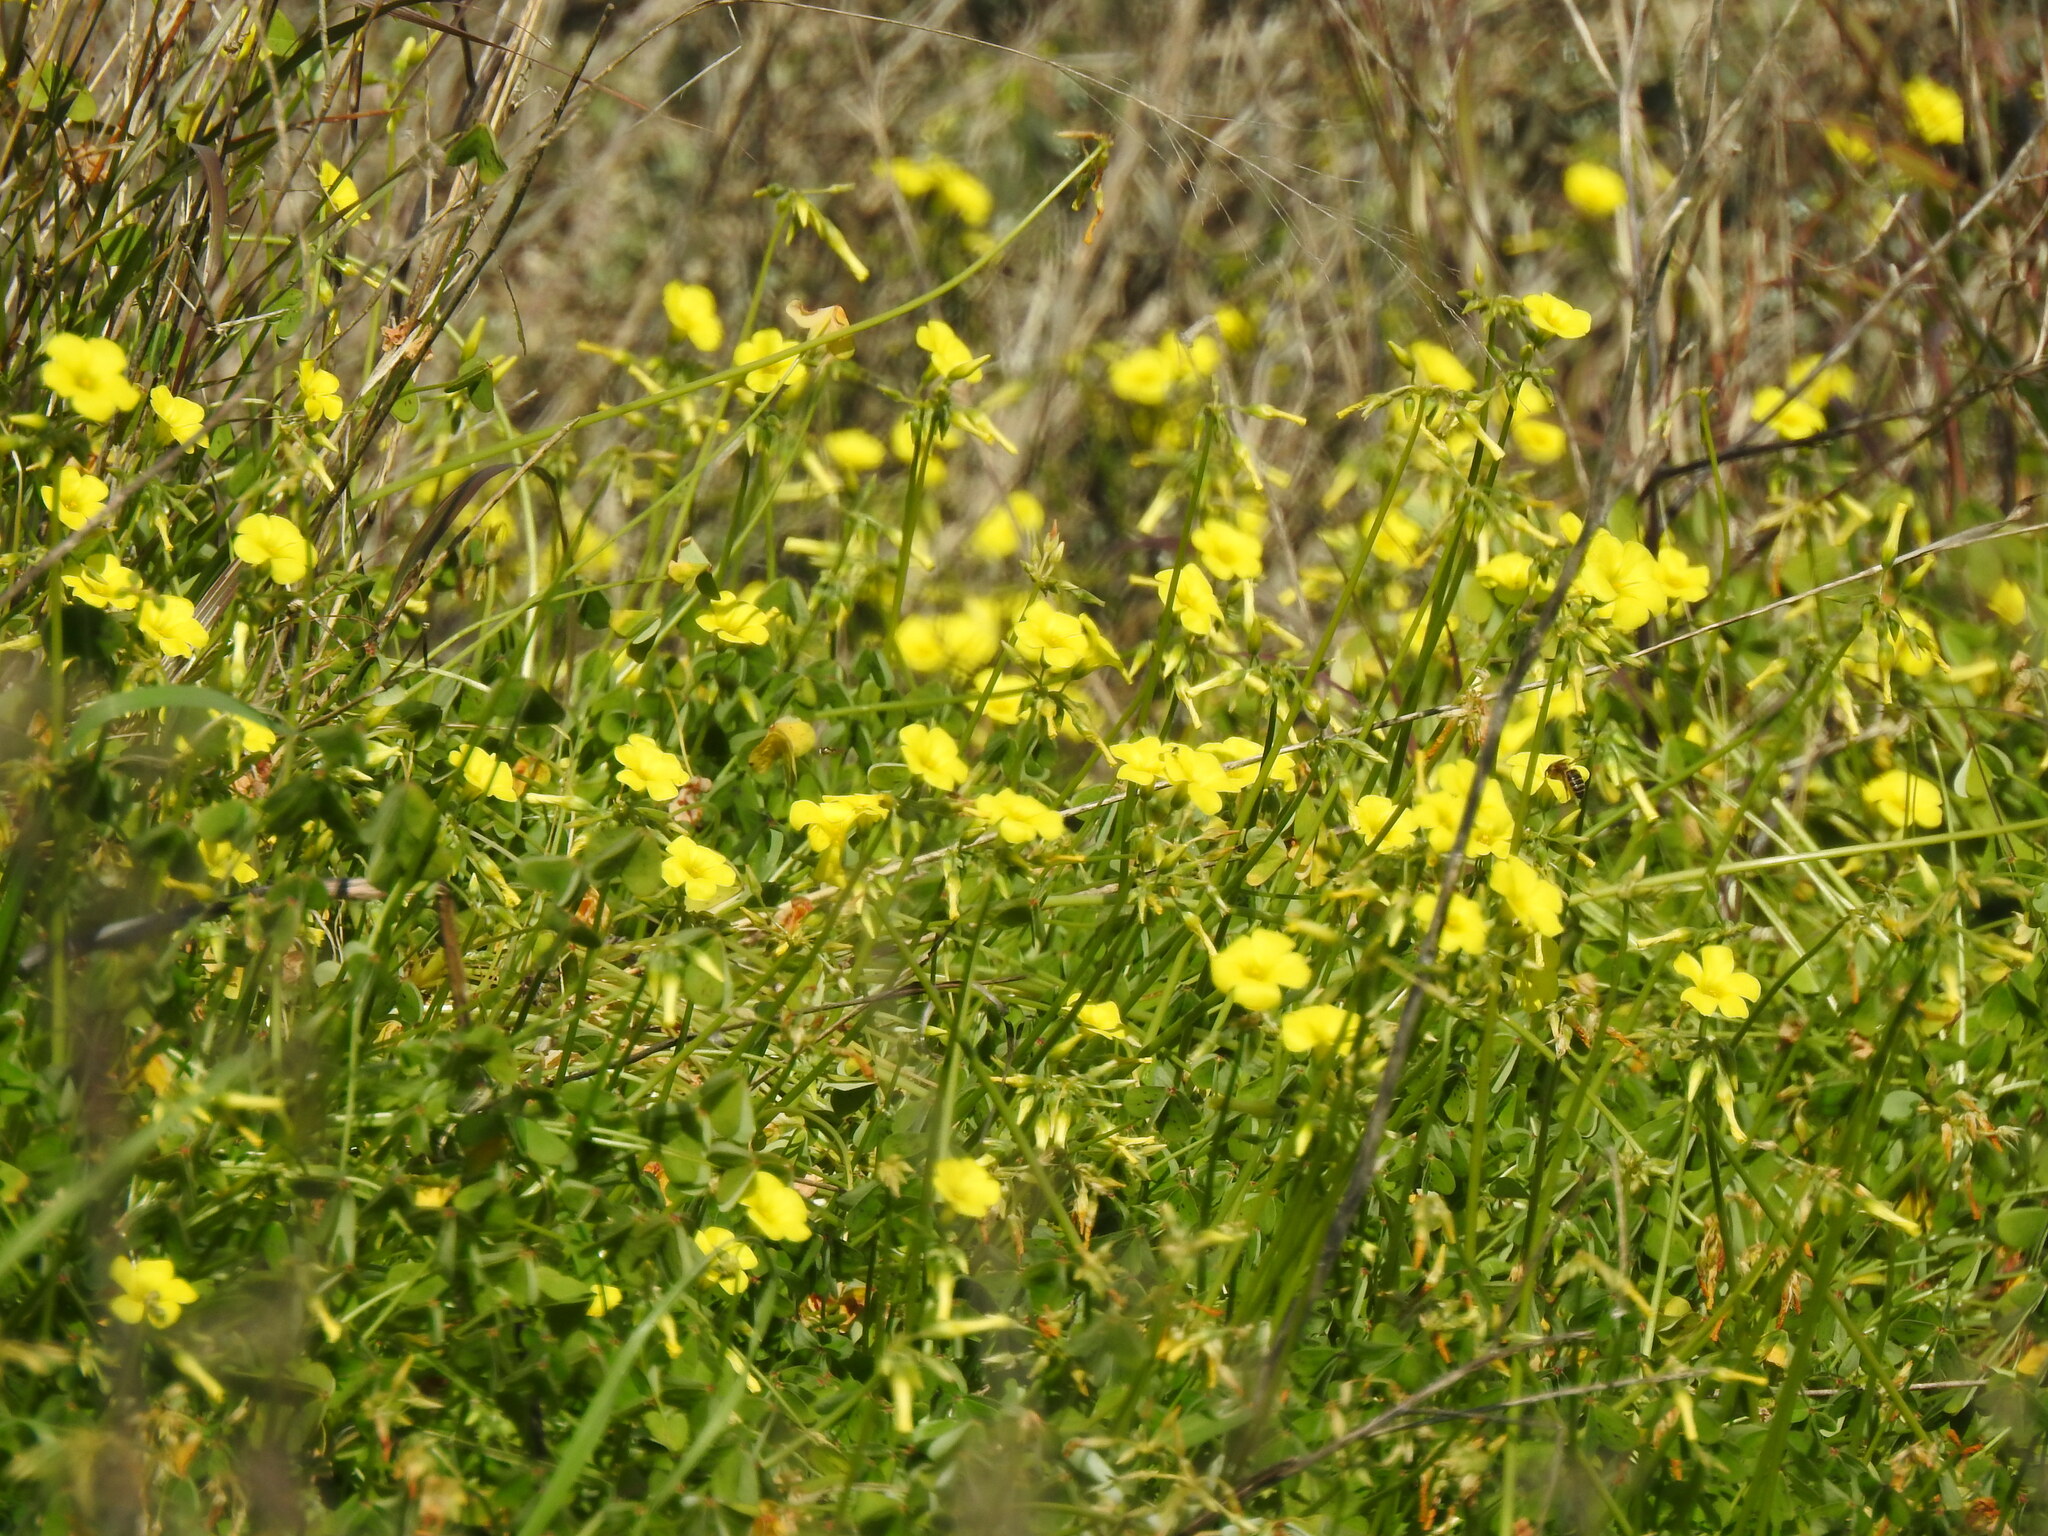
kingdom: Plantae
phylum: Tracheophyta
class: Magnoliopsida
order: Oxalidales
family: Oxalidaceae
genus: Oxalis
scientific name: Oxalis pes-caprae
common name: Bermuda-buttercup
